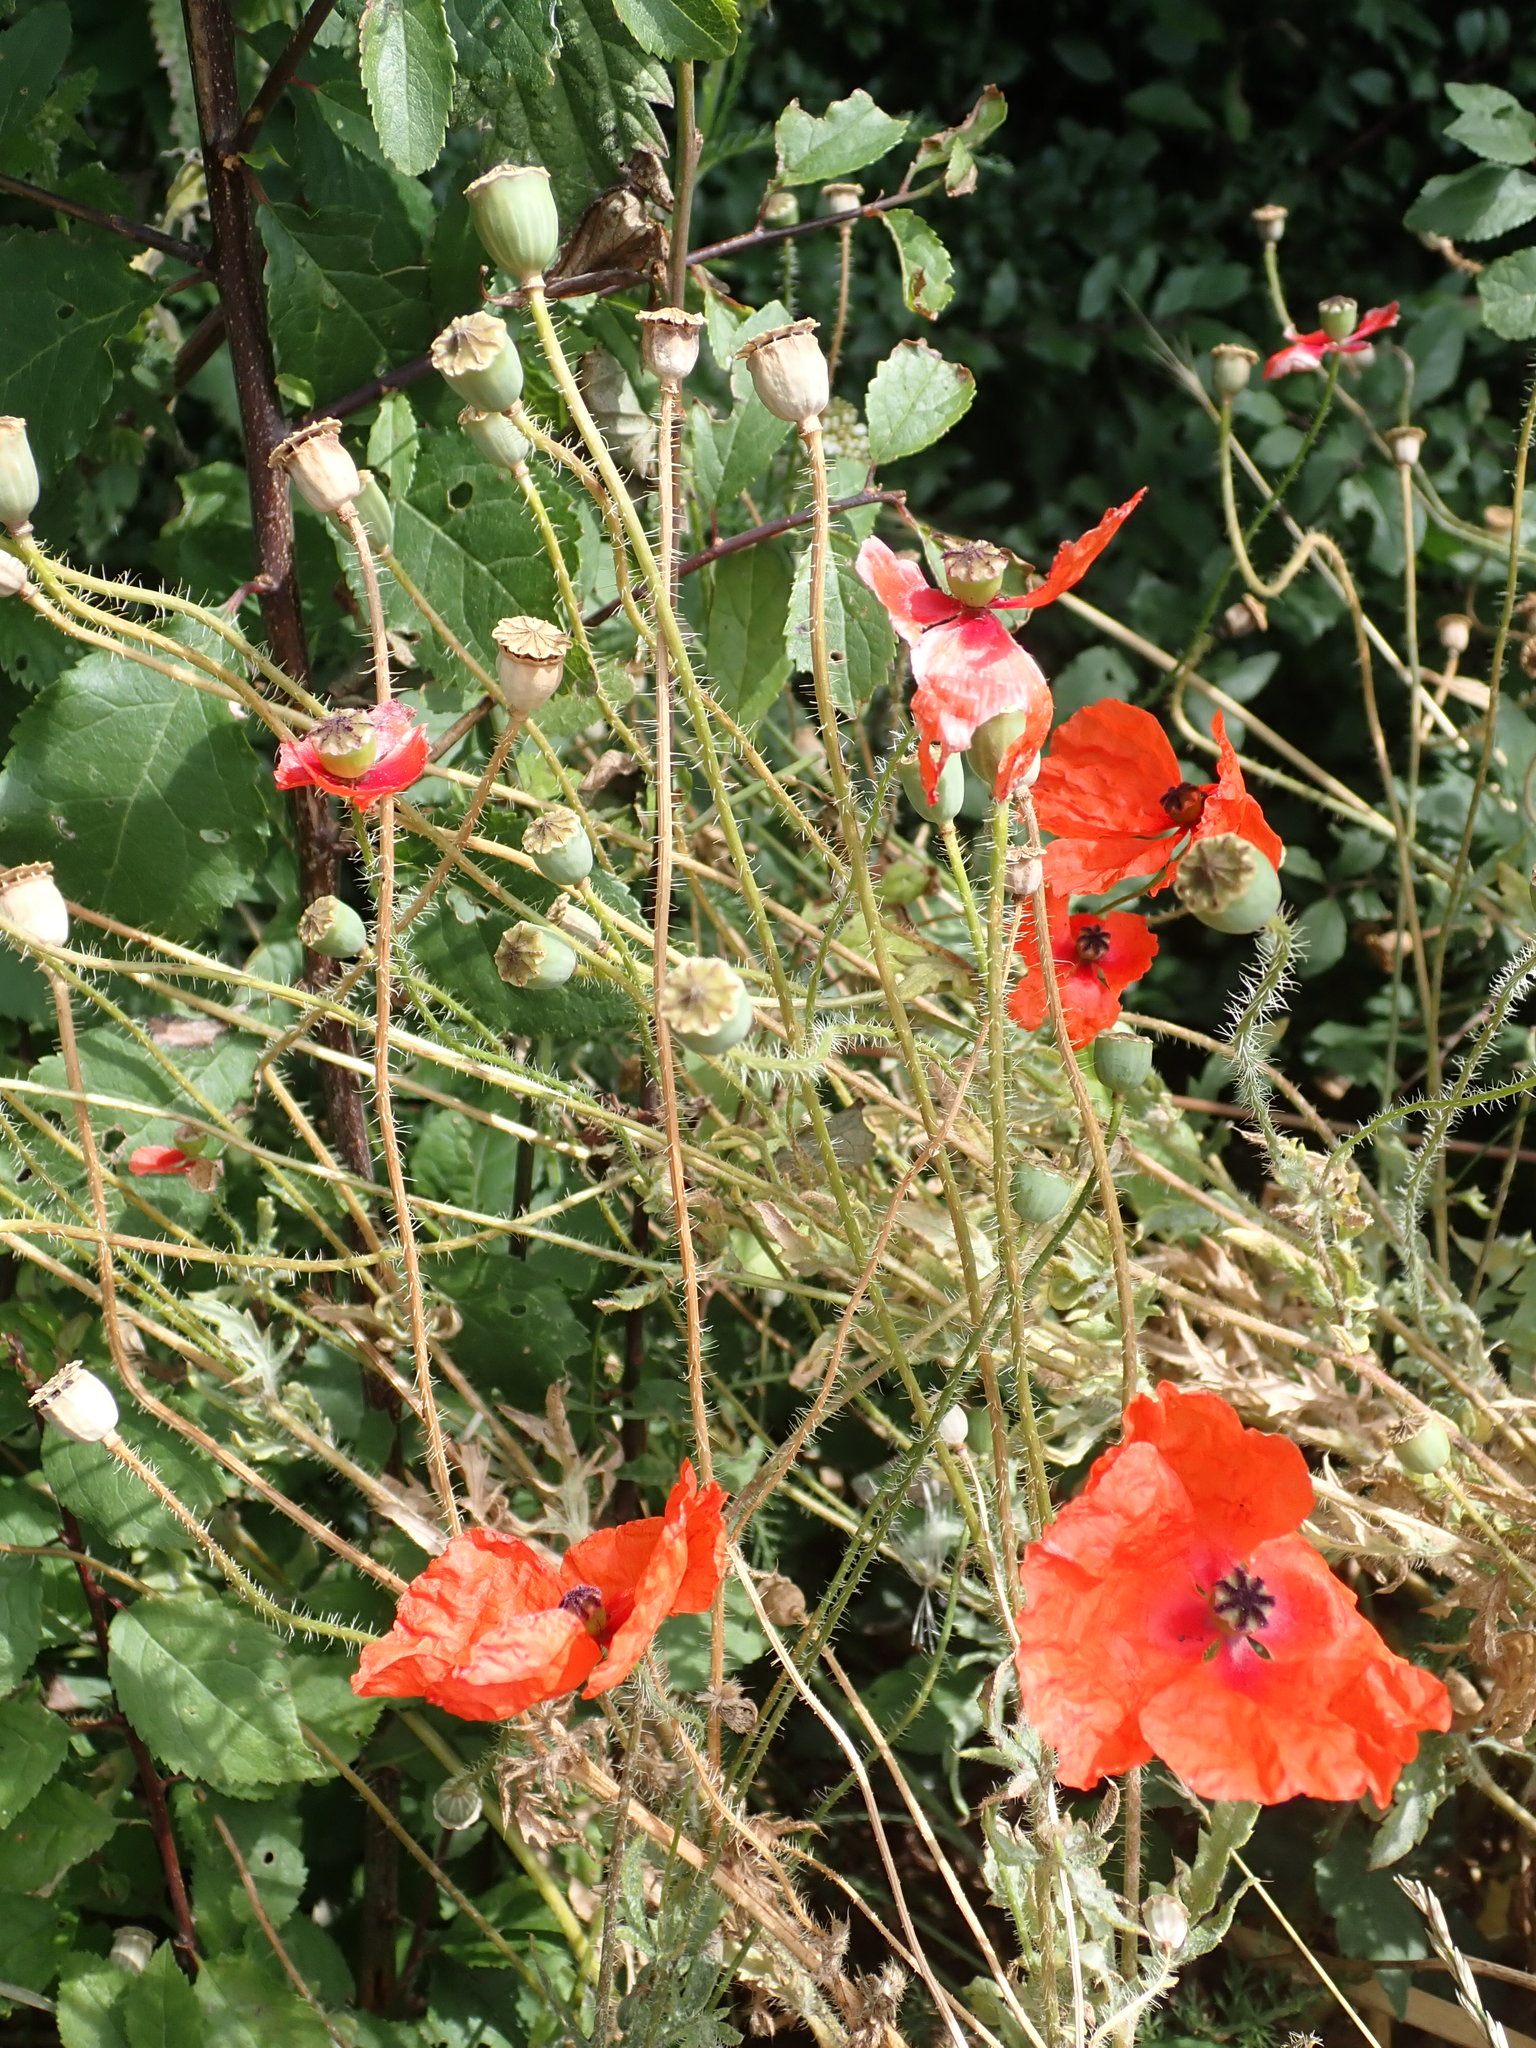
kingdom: Plantae
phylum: Tracheophyta
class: Magnoliopsida
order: Ranunculales
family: Papaveraceae
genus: Papaver
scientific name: Papaver rhoeas
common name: Corn poppy
